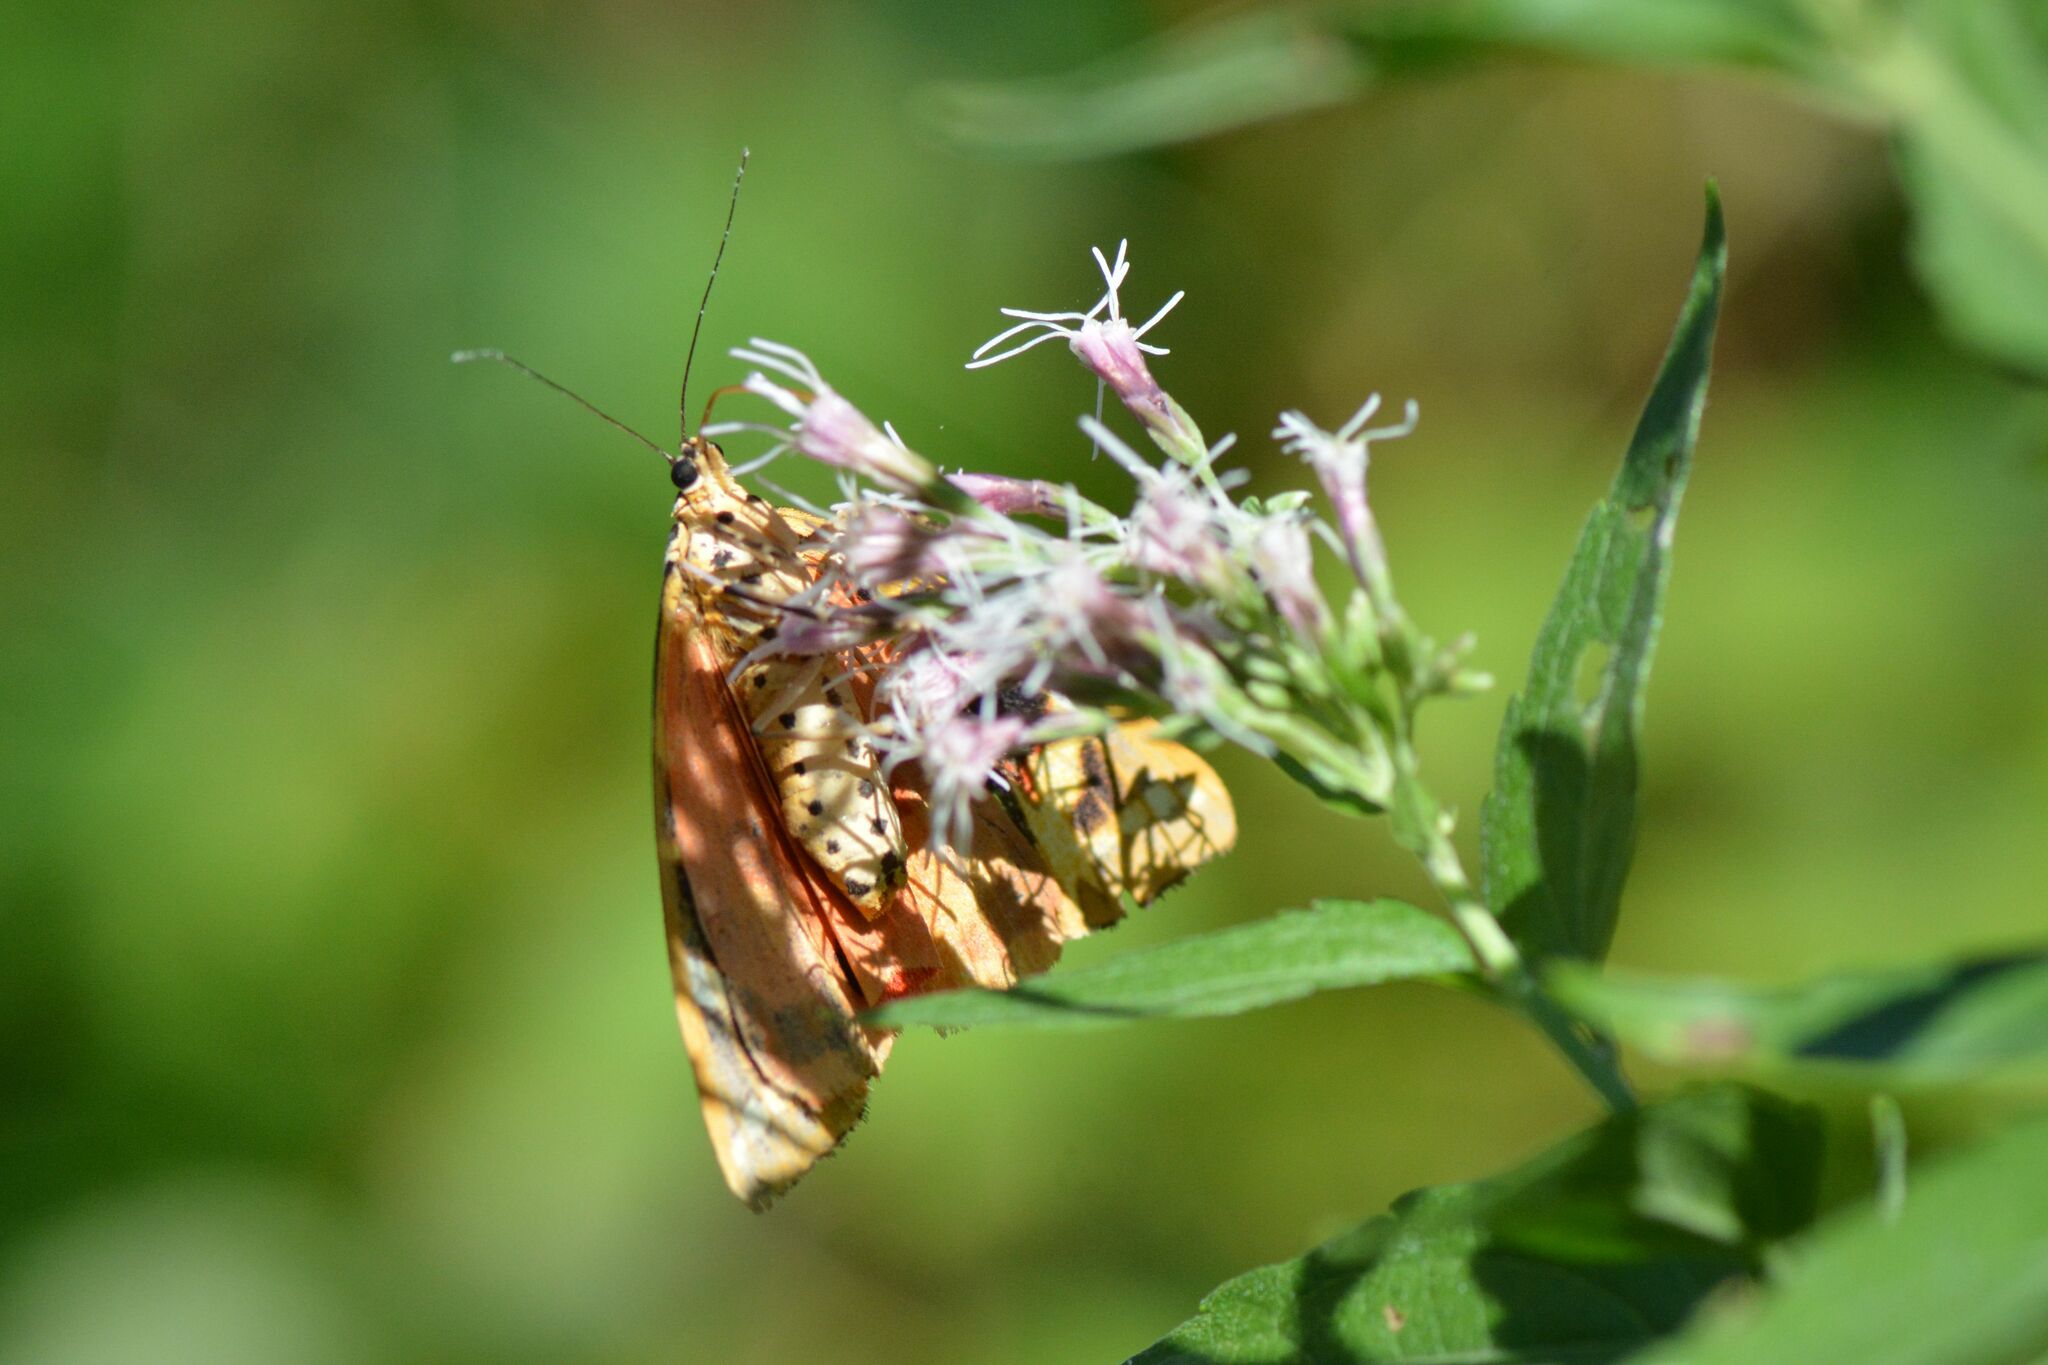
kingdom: Animalia
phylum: Arthropoda
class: Insecta
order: Lepidoptera
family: Erebidae
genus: Euplagia
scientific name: Euplagia quadripunctaria
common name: Jersey tiger
